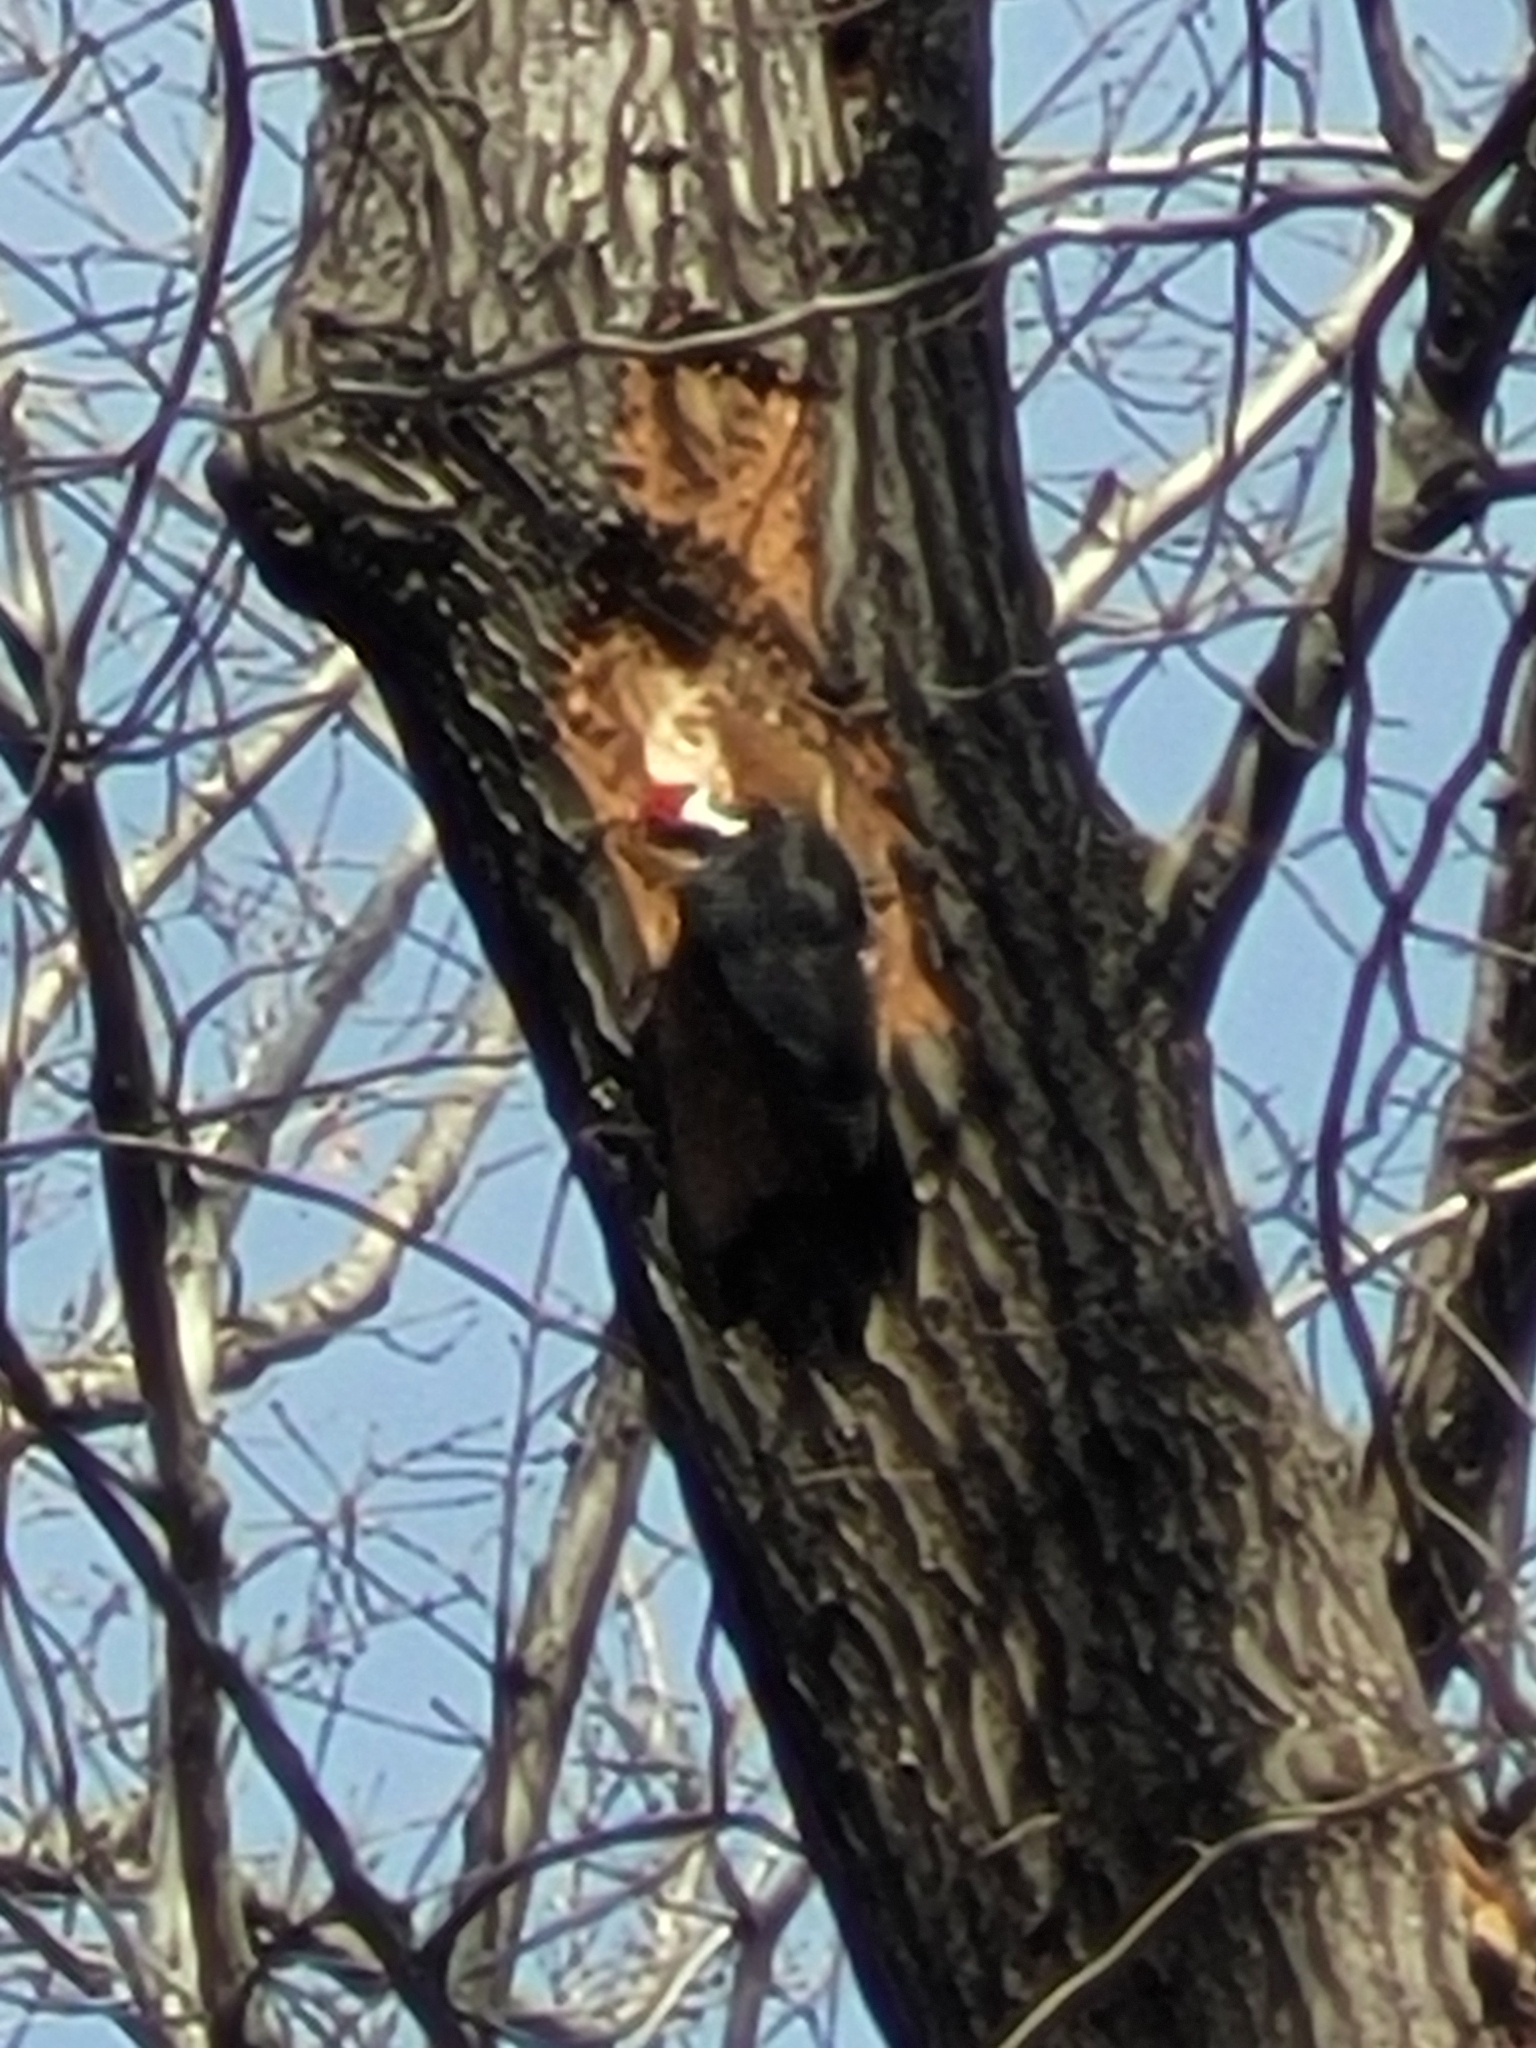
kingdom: Animalia
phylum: Chordata
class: Aves
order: Piciformes
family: Picidae
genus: Dryocopus
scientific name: Dryocopus pileatus
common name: Pileated woodpecker
